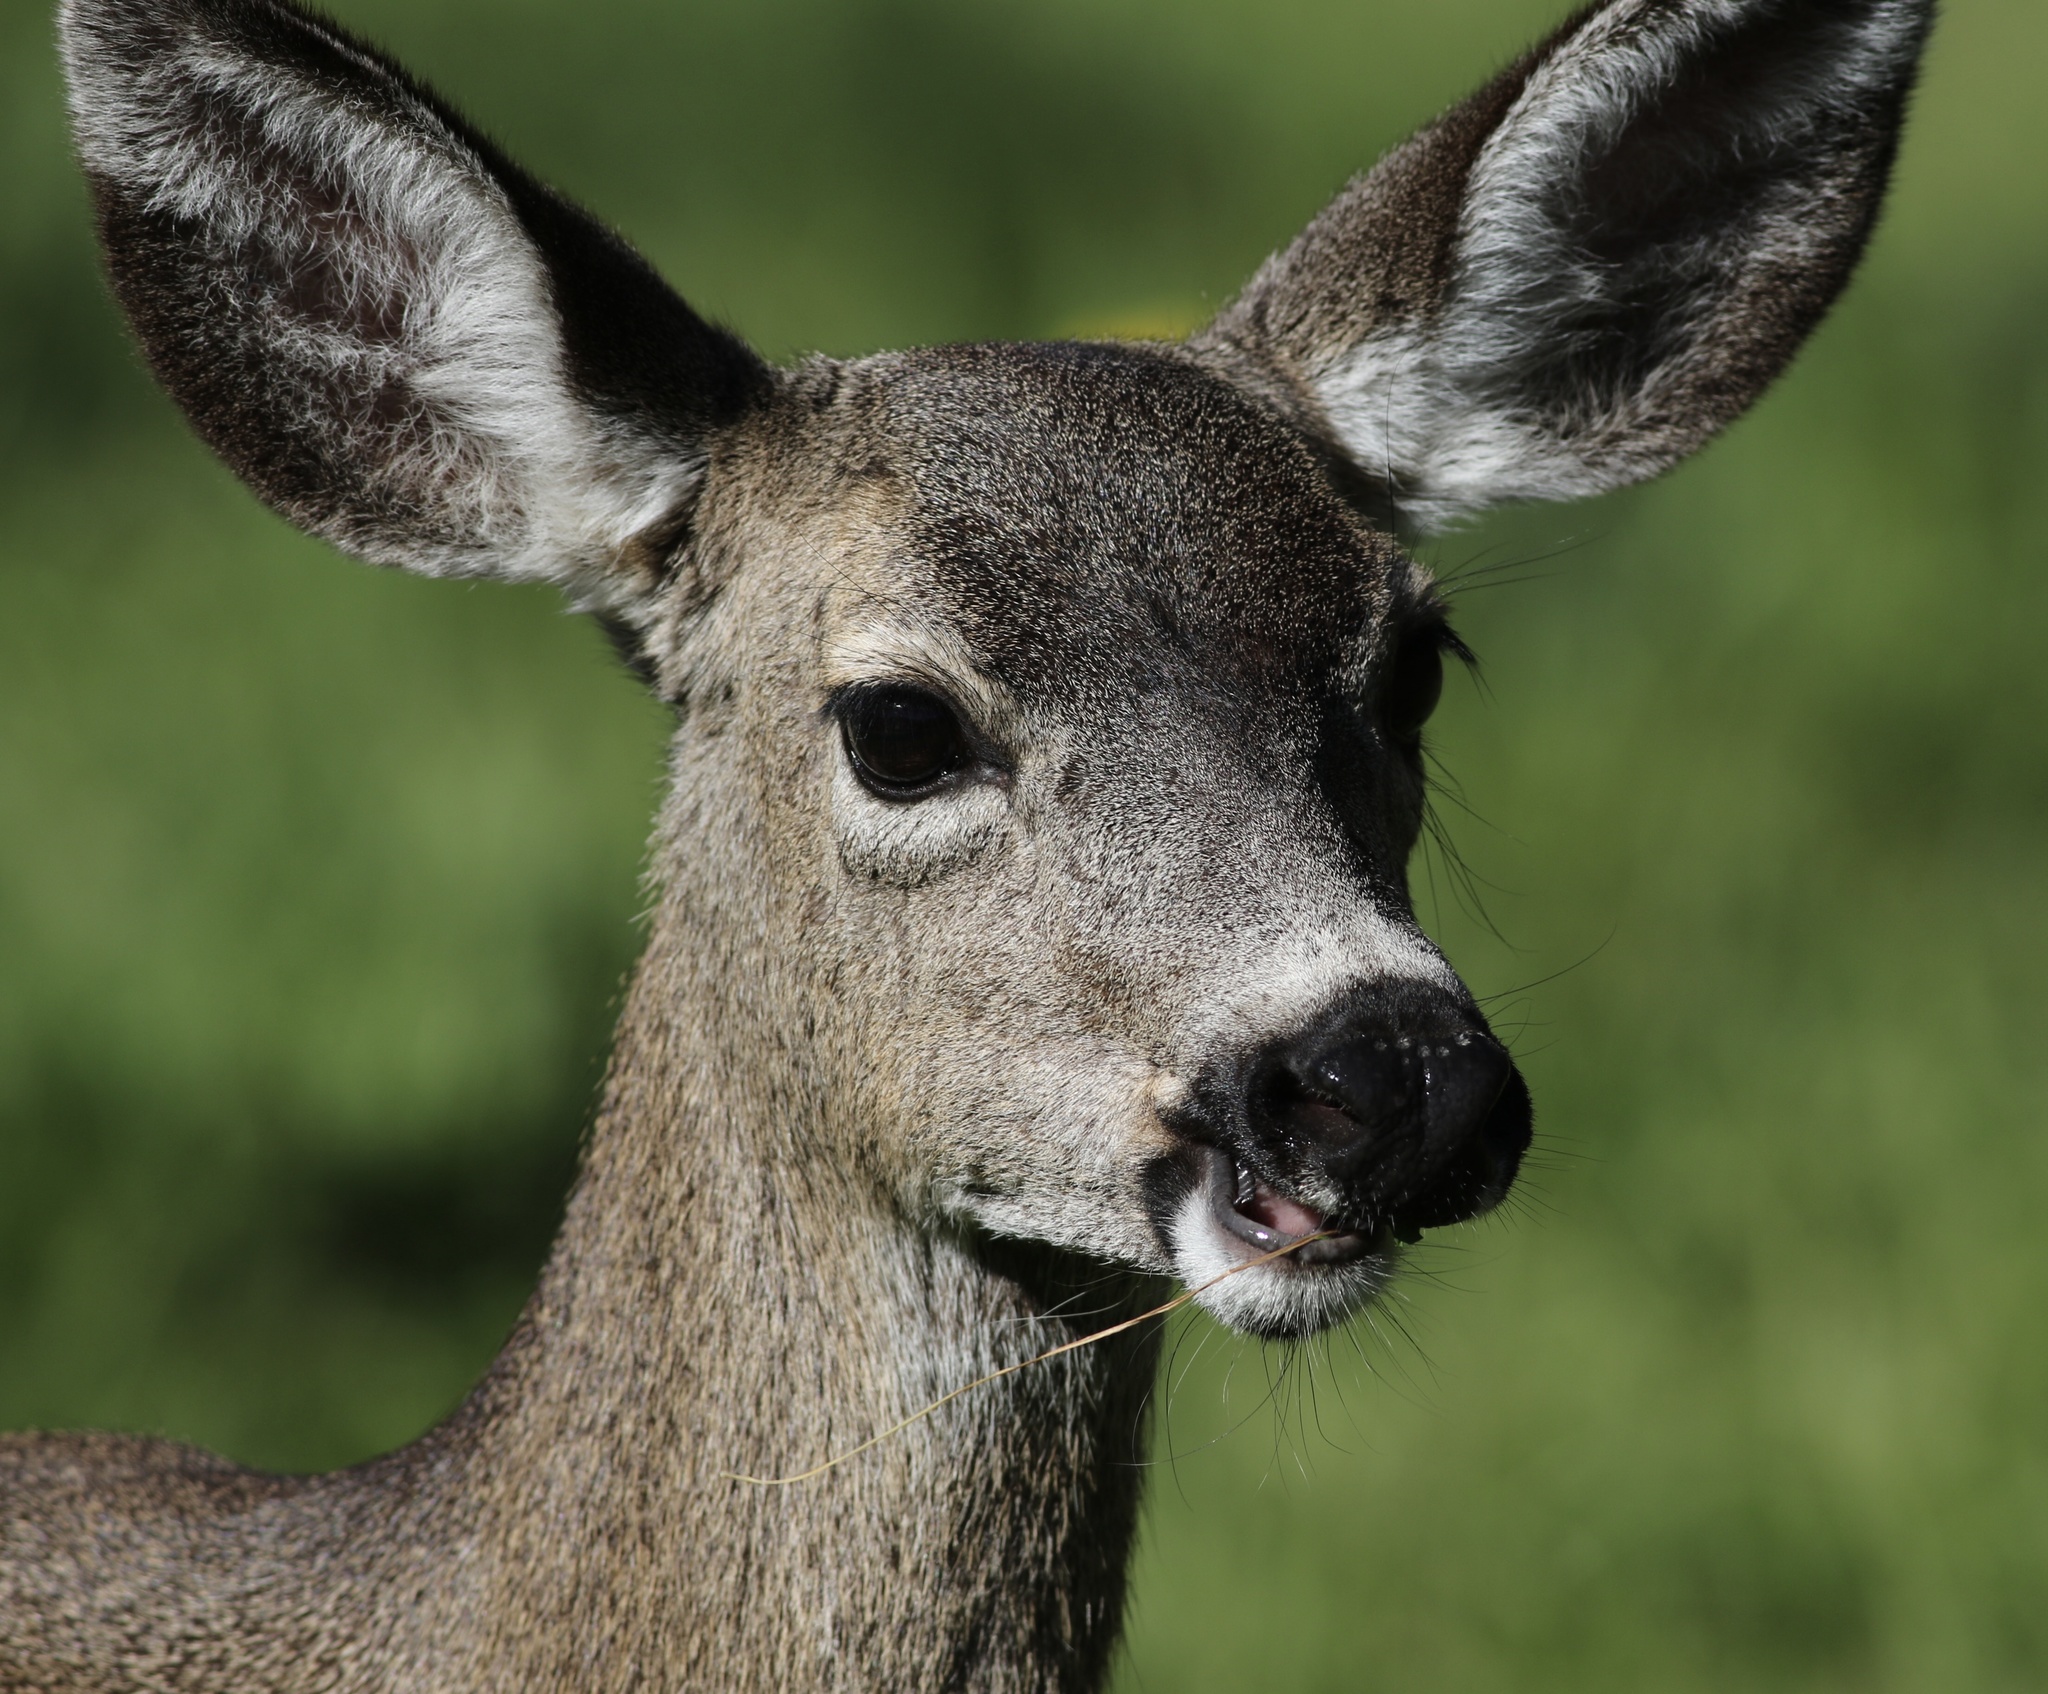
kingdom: Animalia
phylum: Chordata
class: Mammalia
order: Artiodactyla
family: Cervidae
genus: Odocoileus
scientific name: Odocoileus hemionus
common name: Mule deer
